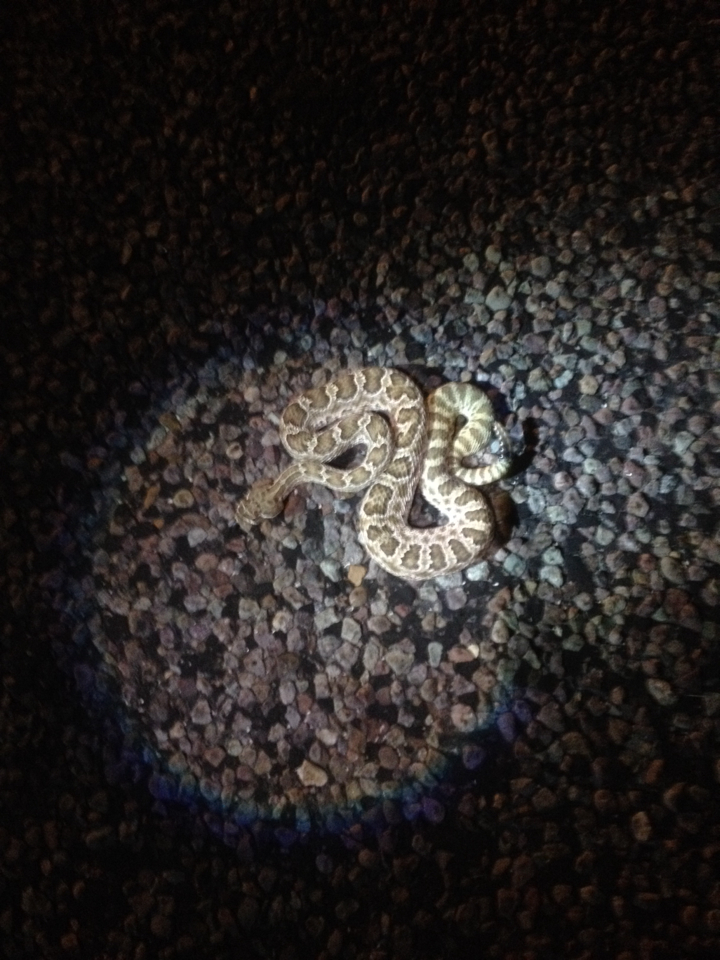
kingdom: Animalia
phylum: Chordata
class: Squamata
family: Viperidae
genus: Crotalus
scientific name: Crotalus viridis
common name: Prairie rattlesnake
